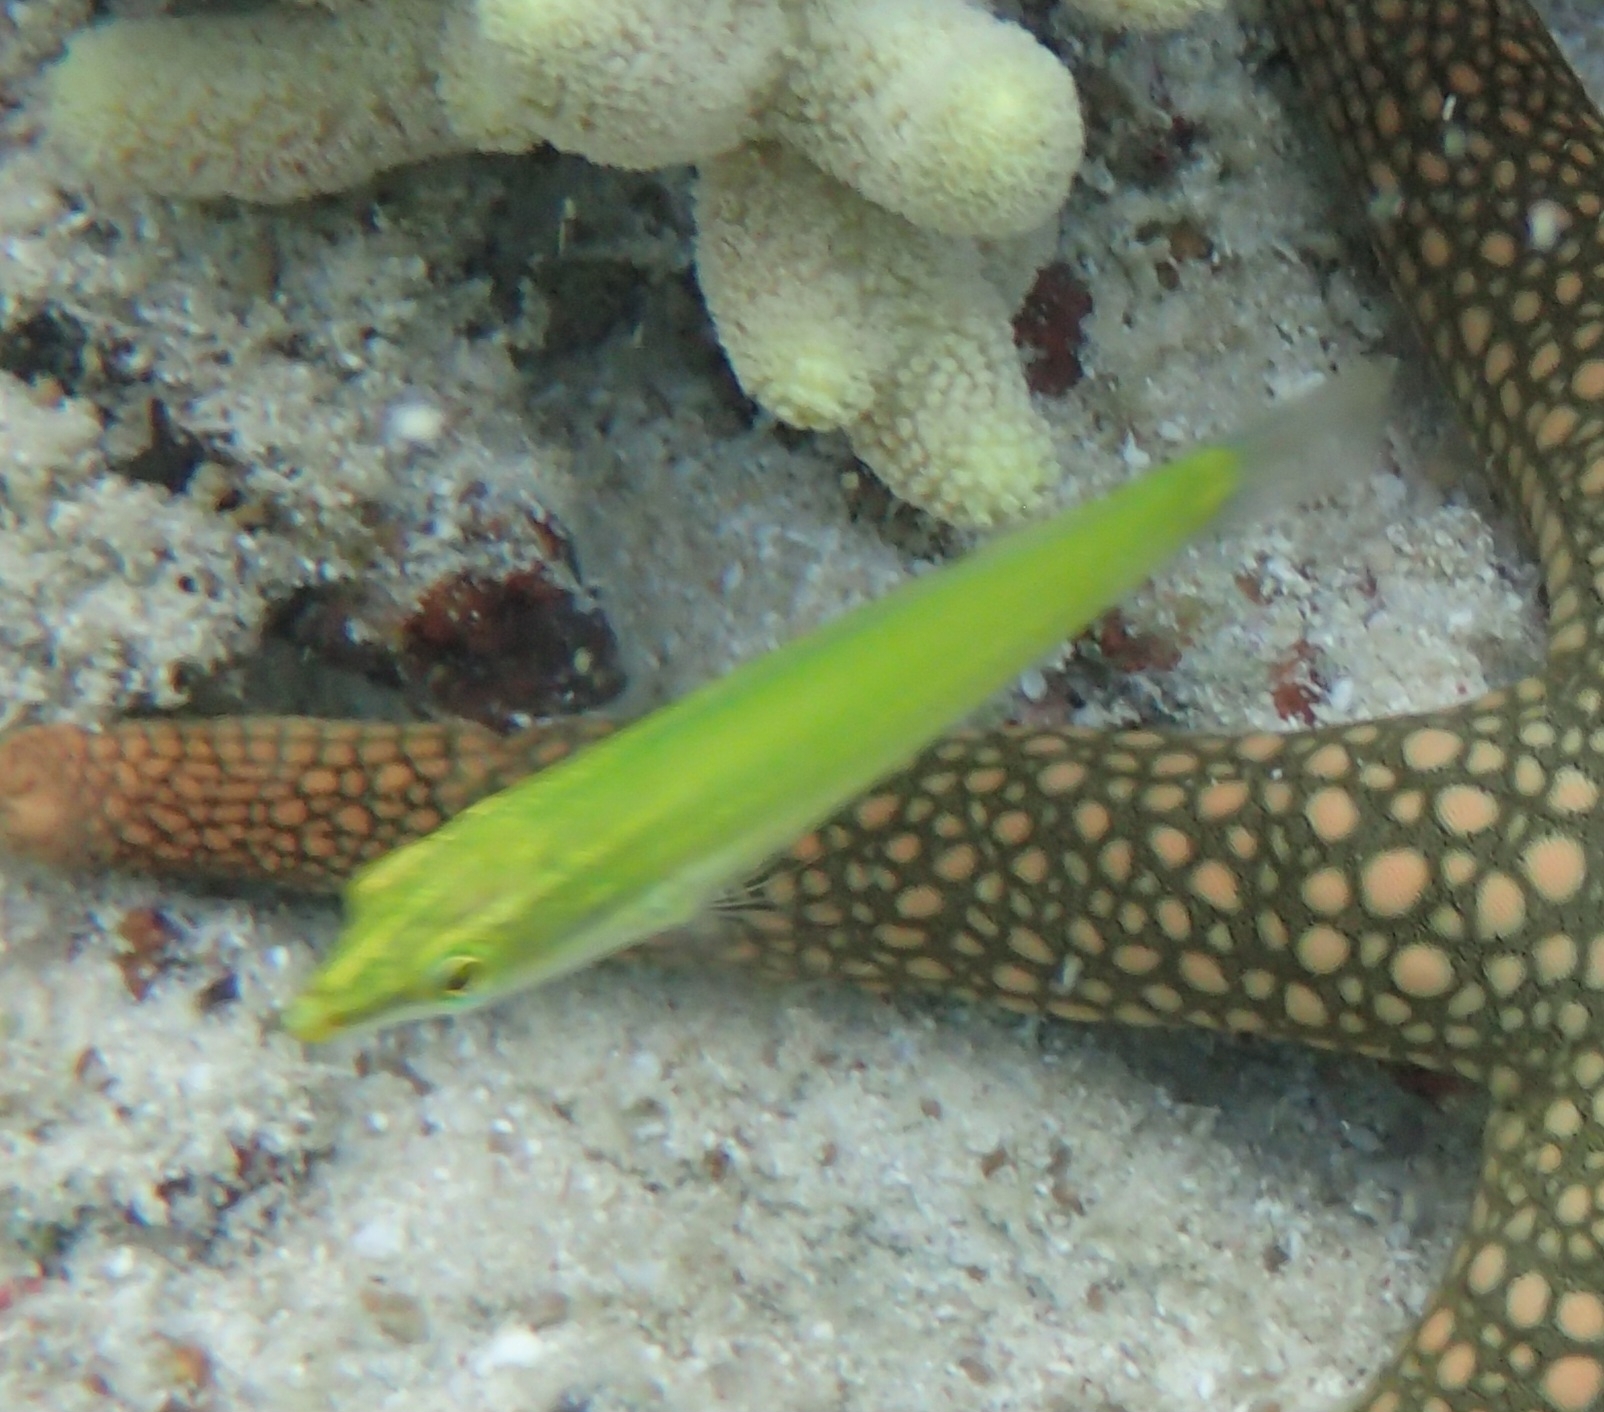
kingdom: Animalia
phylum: Chordata
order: Perciformes
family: Labridae
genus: Halichoeres
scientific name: Halichoeres chloropterus
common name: Pastel-green wrasse
